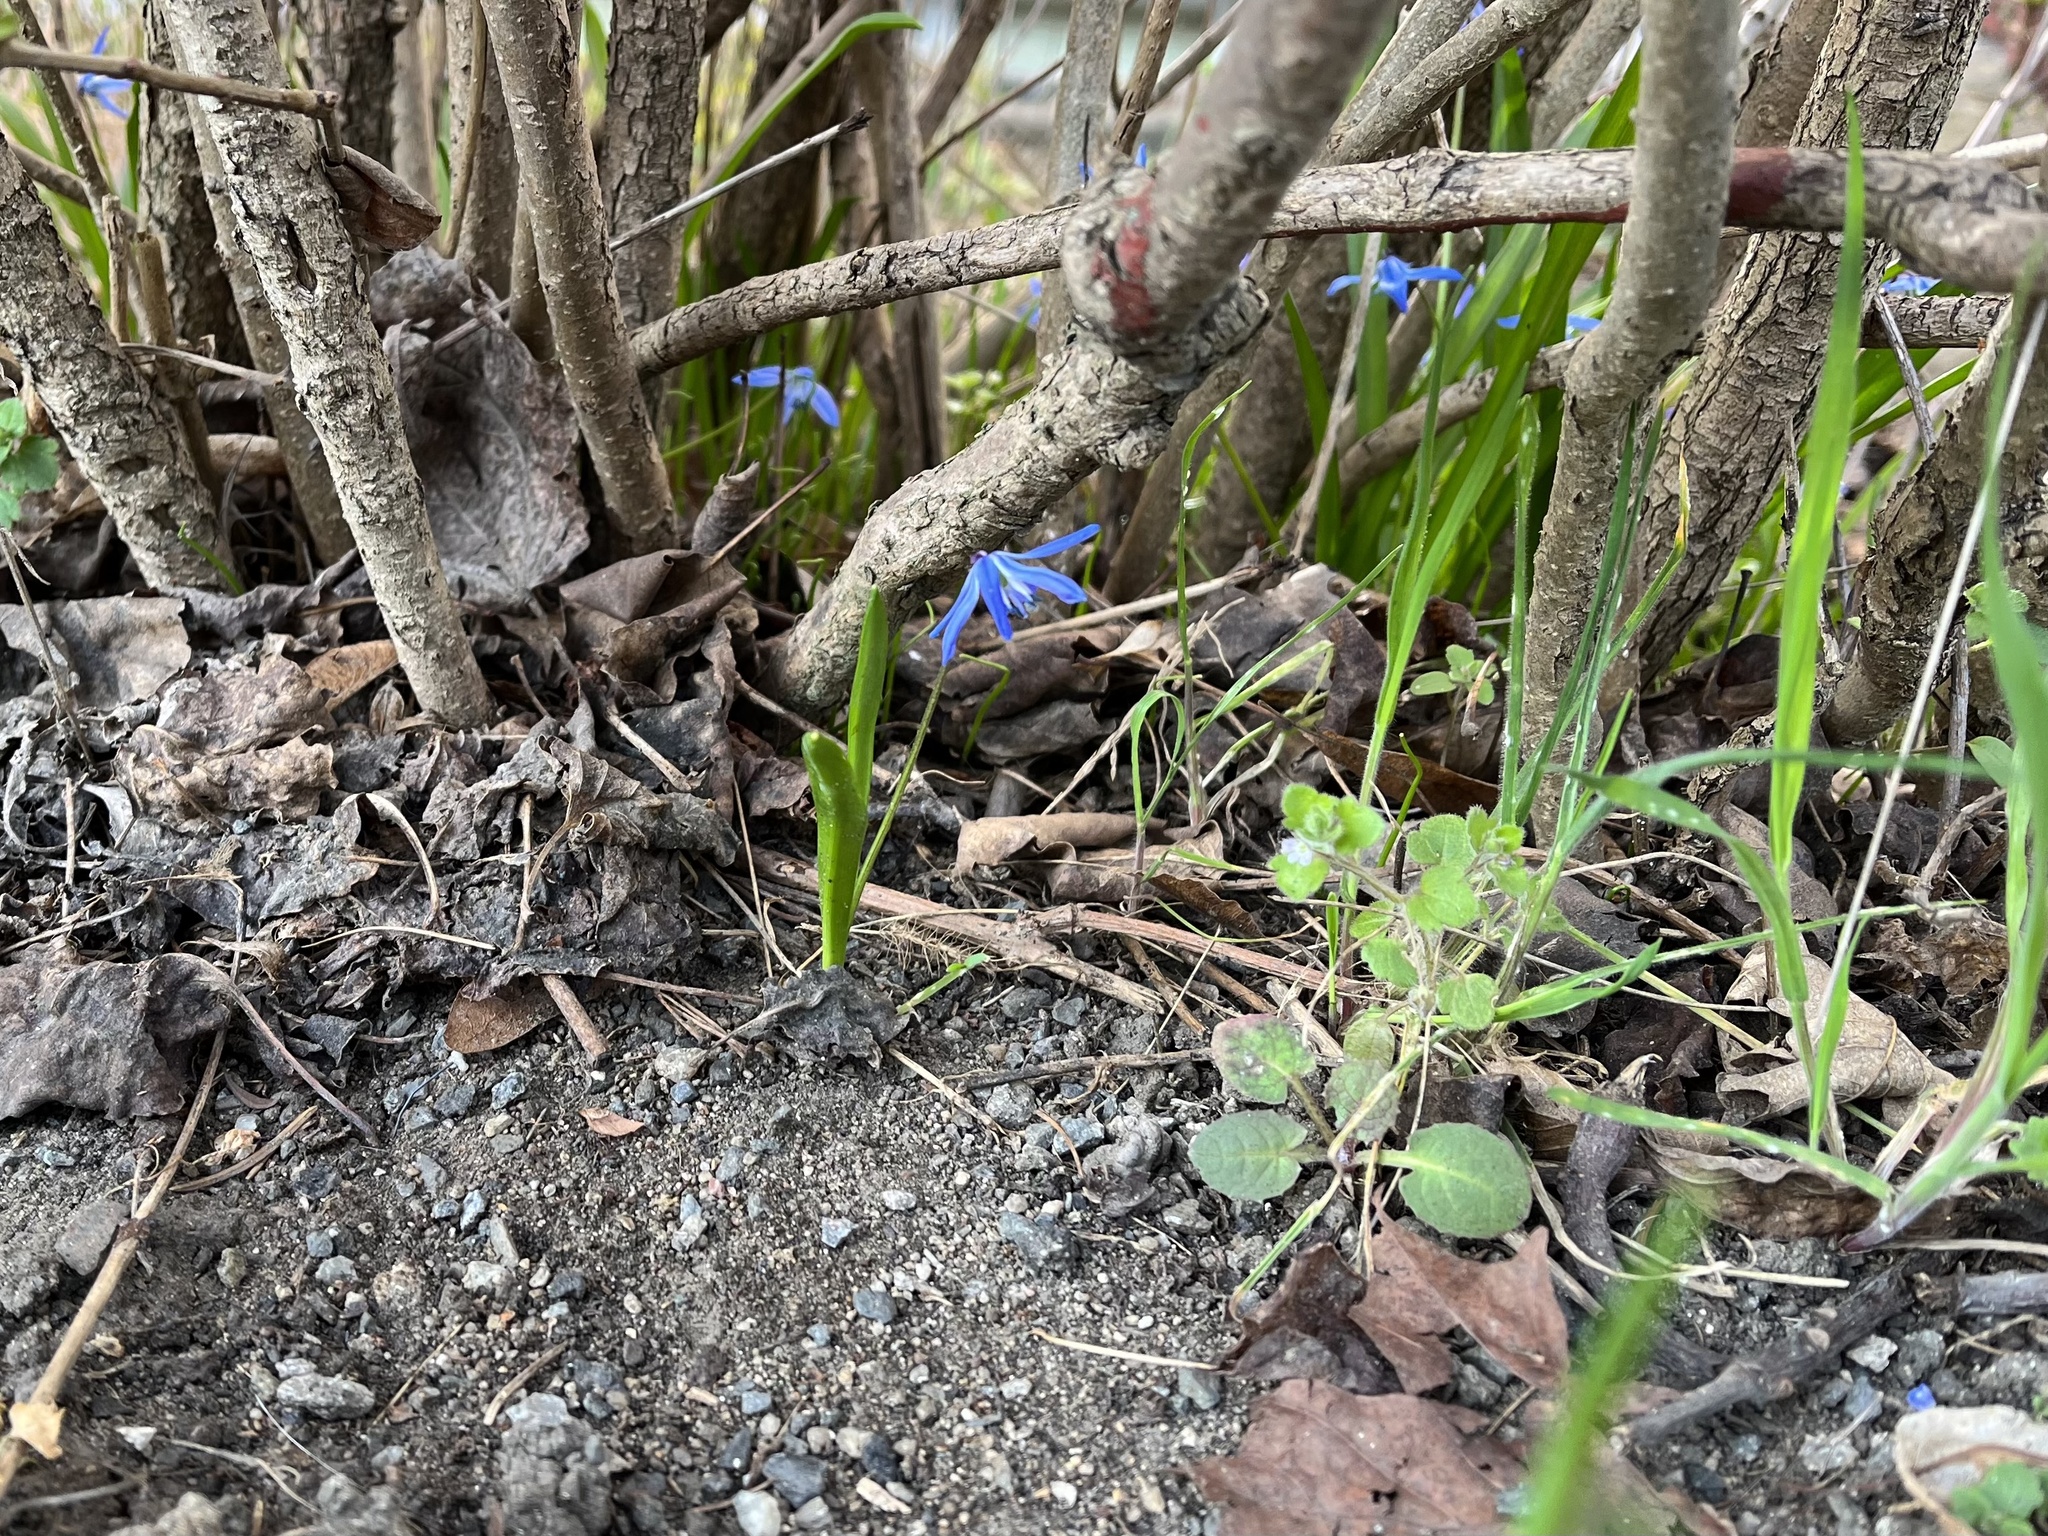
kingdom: Plantae
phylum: Tracheophyta
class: Liliopsida
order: Asparagales
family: Asparagaceae
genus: Scilla
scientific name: Scilla siberica
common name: Siberian squill
